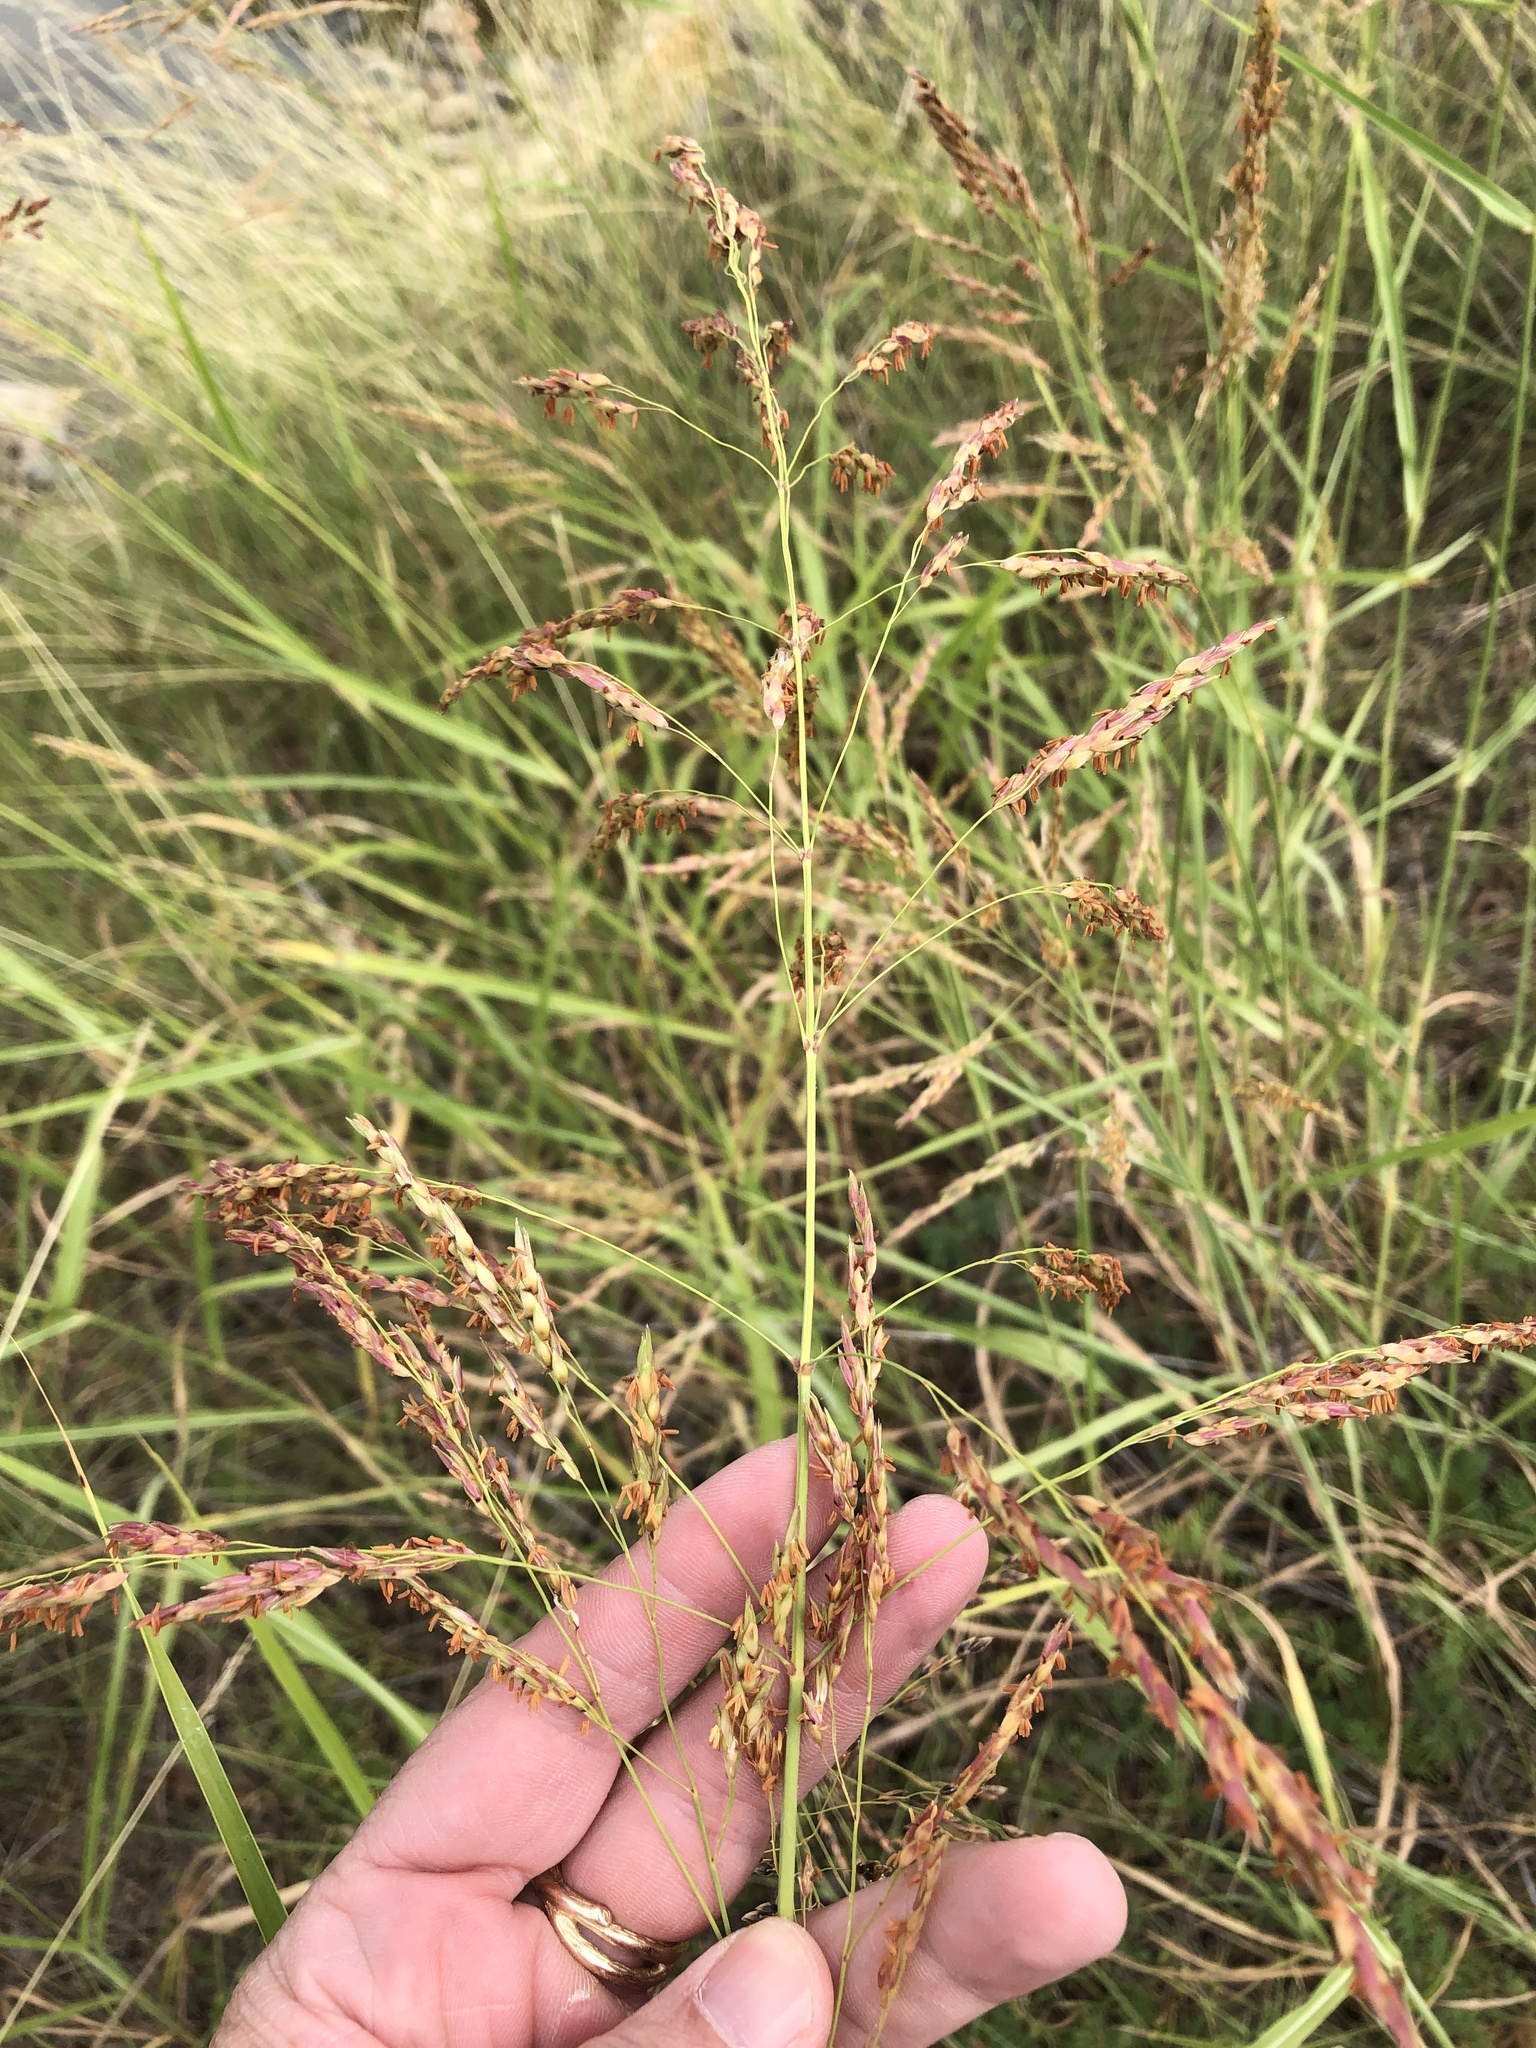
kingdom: Plantae
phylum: Tracheophyta
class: Liliopsida
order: Poales
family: Poaceae
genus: Sorghum
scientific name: Sorghum halepense
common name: Johnson-grass
